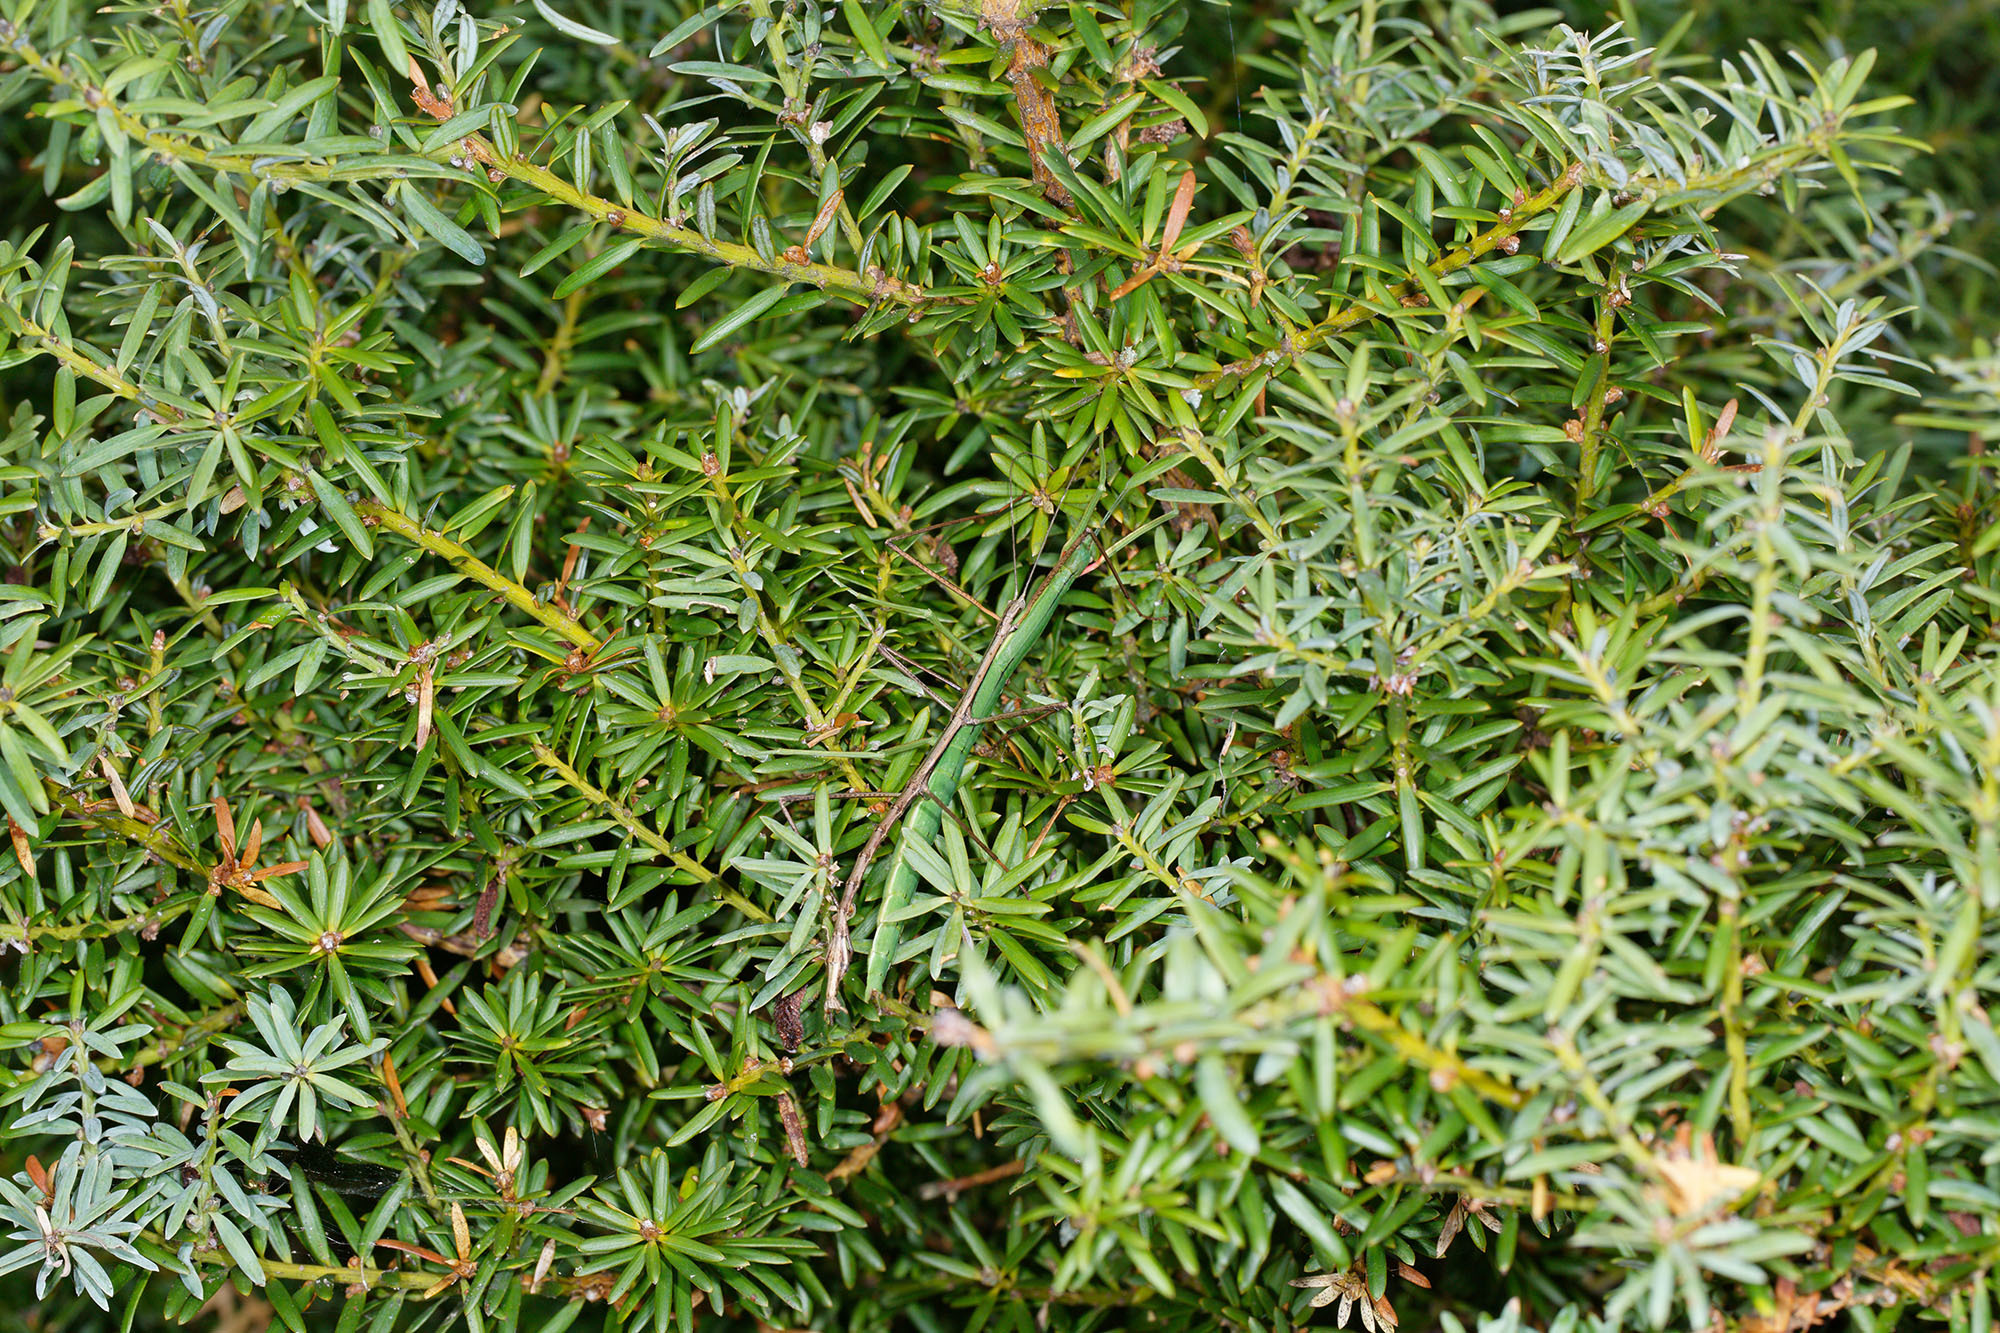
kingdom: Animalia
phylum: Arthropoda
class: Insecta
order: Phasmida
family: Phasmatidae
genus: Clitarchus
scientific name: Clitarchus hookeri
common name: Smooth stick insect
